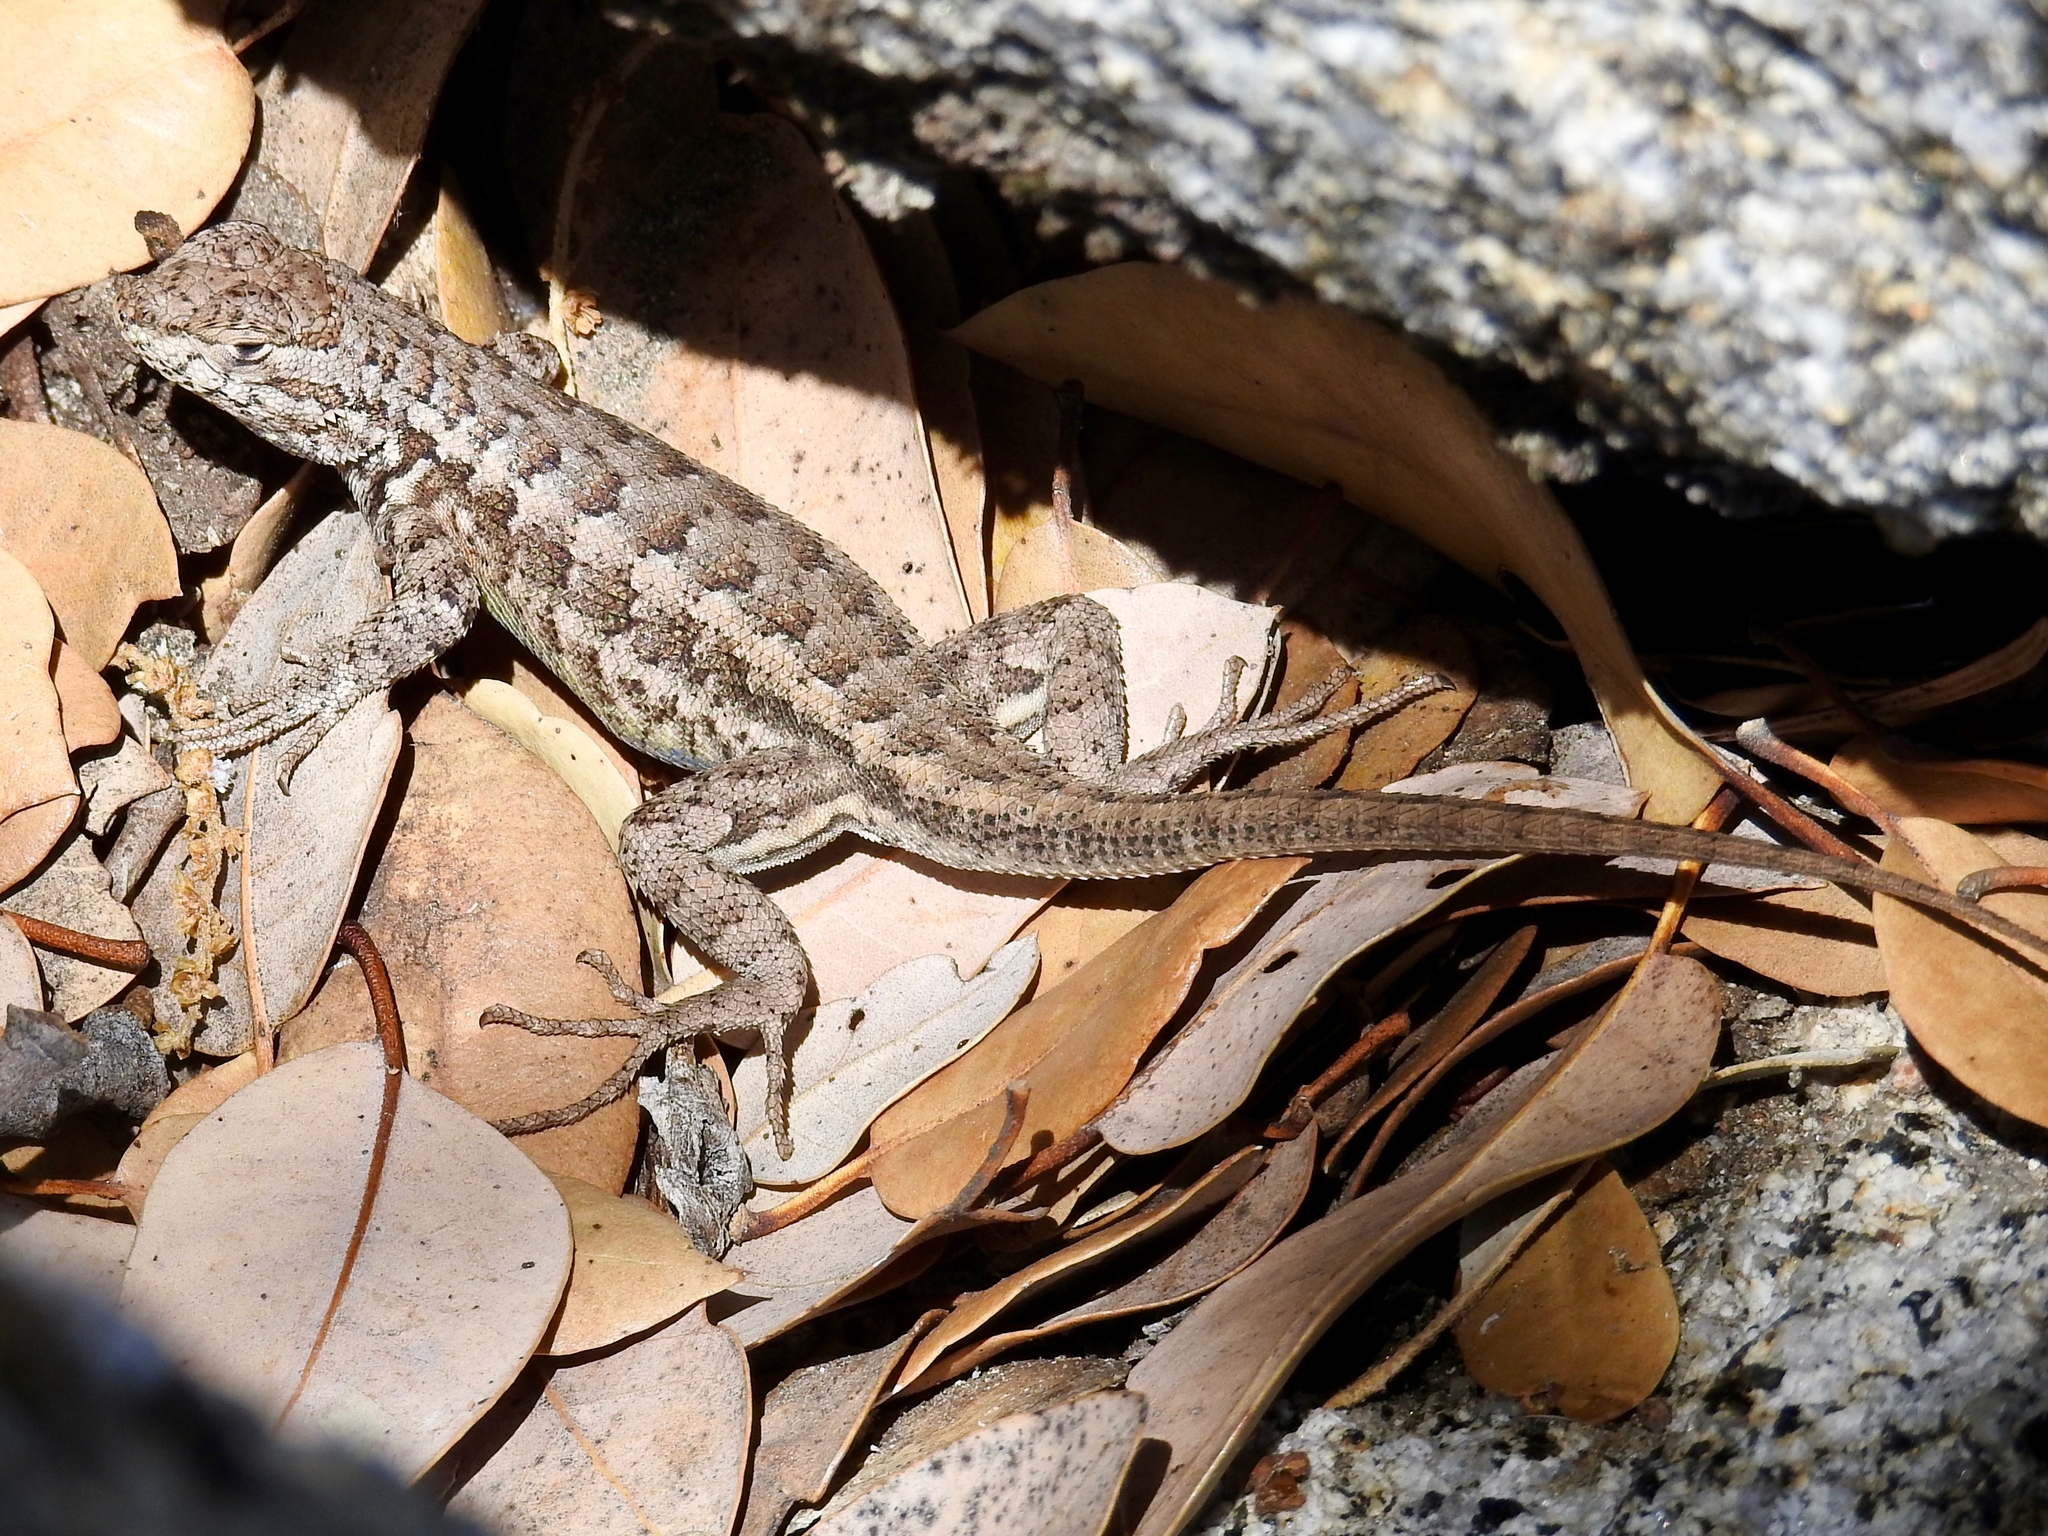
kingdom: Animalia
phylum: Chordata
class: Squamata
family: Phrynosomatidae
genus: Sceloporus
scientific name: Sceloporus graciosus
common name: Sagebrush lizard
